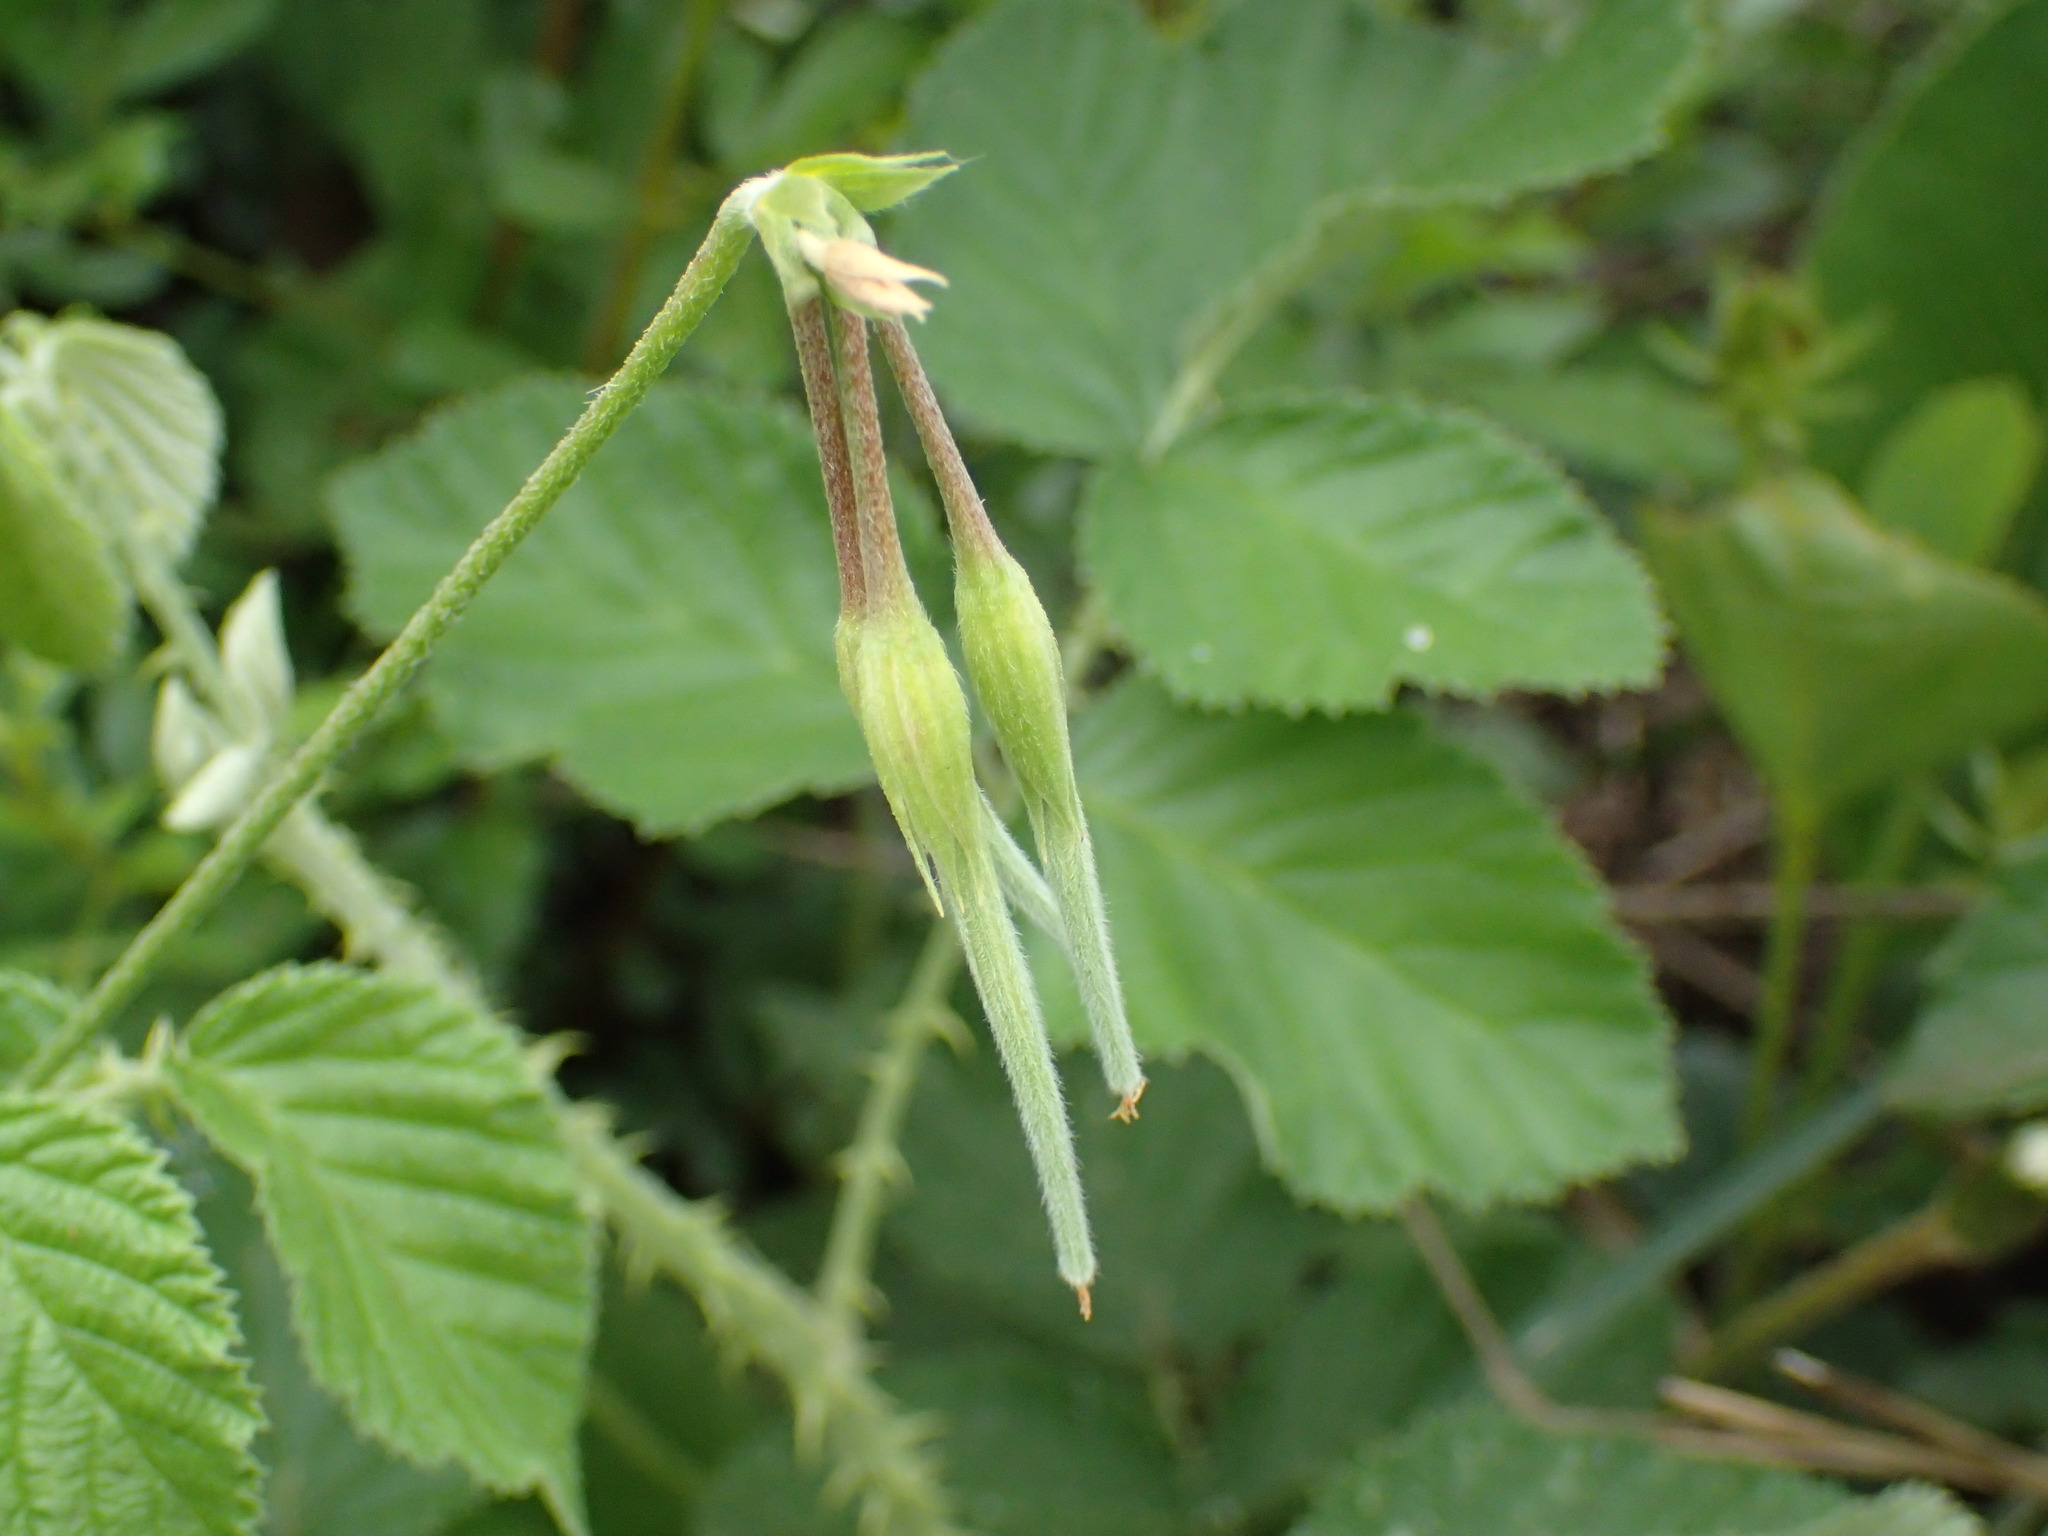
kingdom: Plantae
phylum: Tracheophyta
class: Magnoliopsida
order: Geraniales
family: Geraniaceae
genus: Pelargonium
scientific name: Pelargonium alchemilloides
